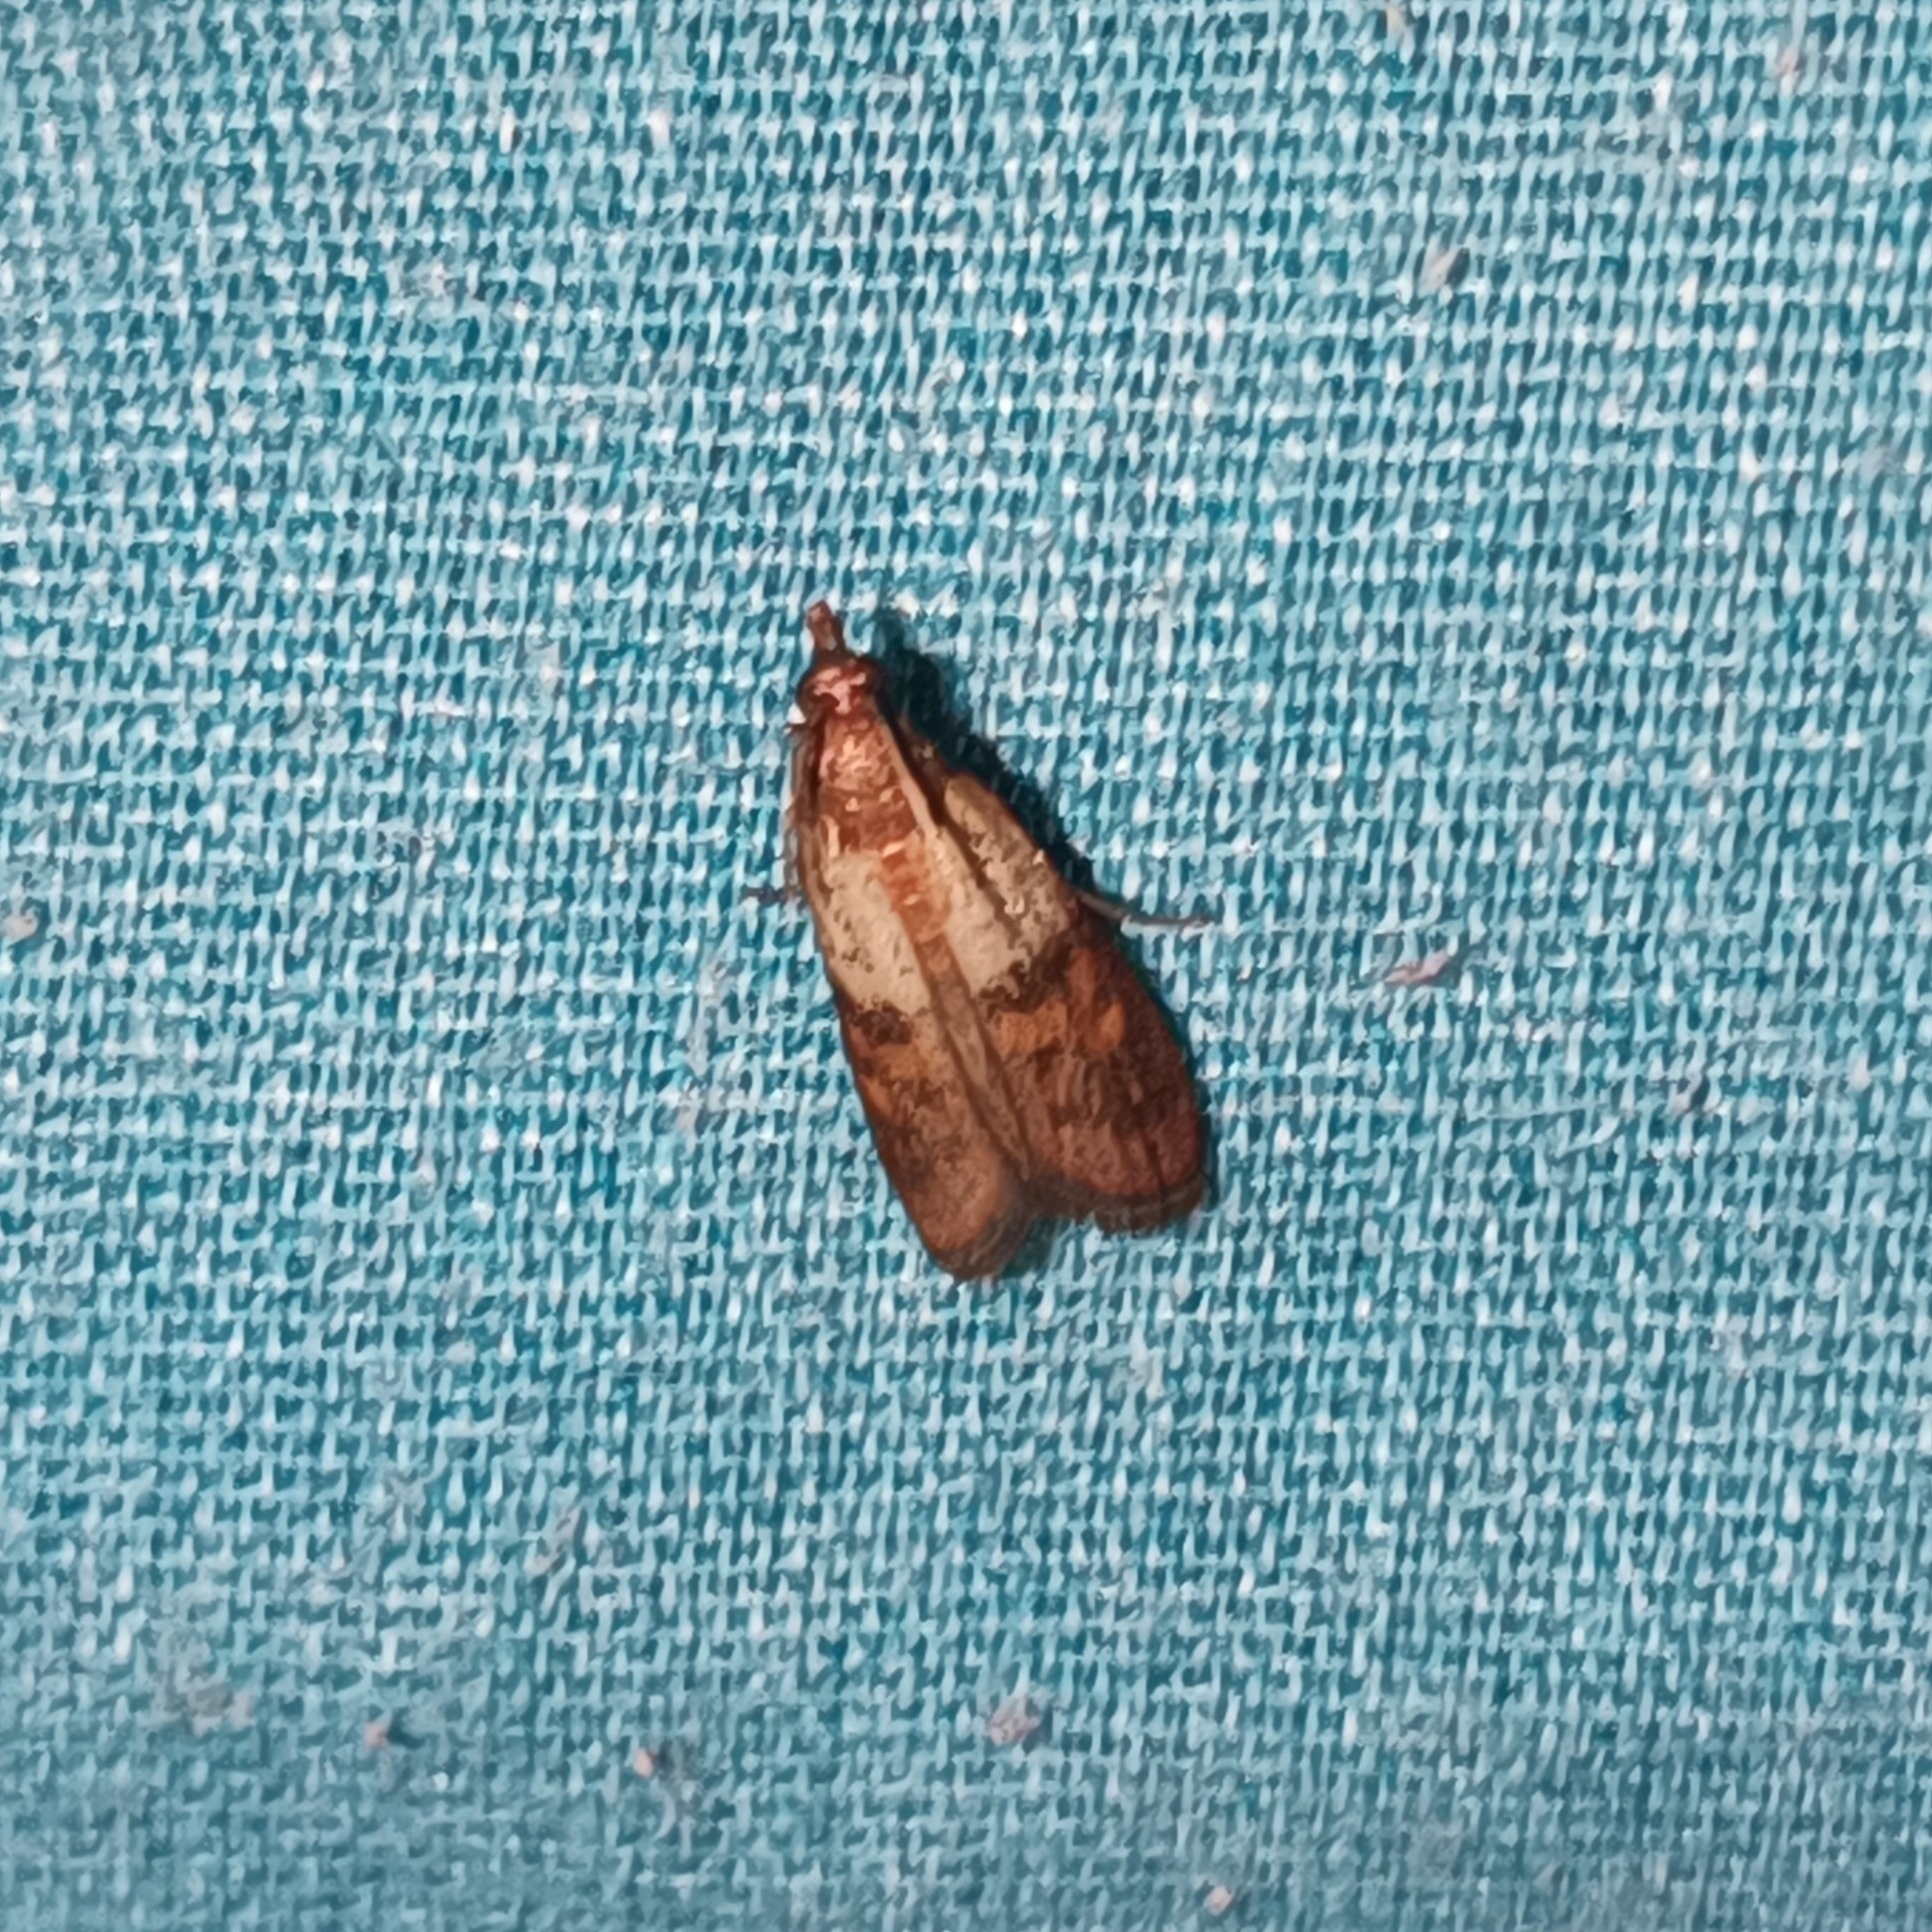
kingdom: Animalia
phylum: Arthropoda
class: Insecta
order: Lepidoptera
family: Pyralidae
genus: Plodia
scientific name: Plodia interpunctella
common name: Indian meal moth
